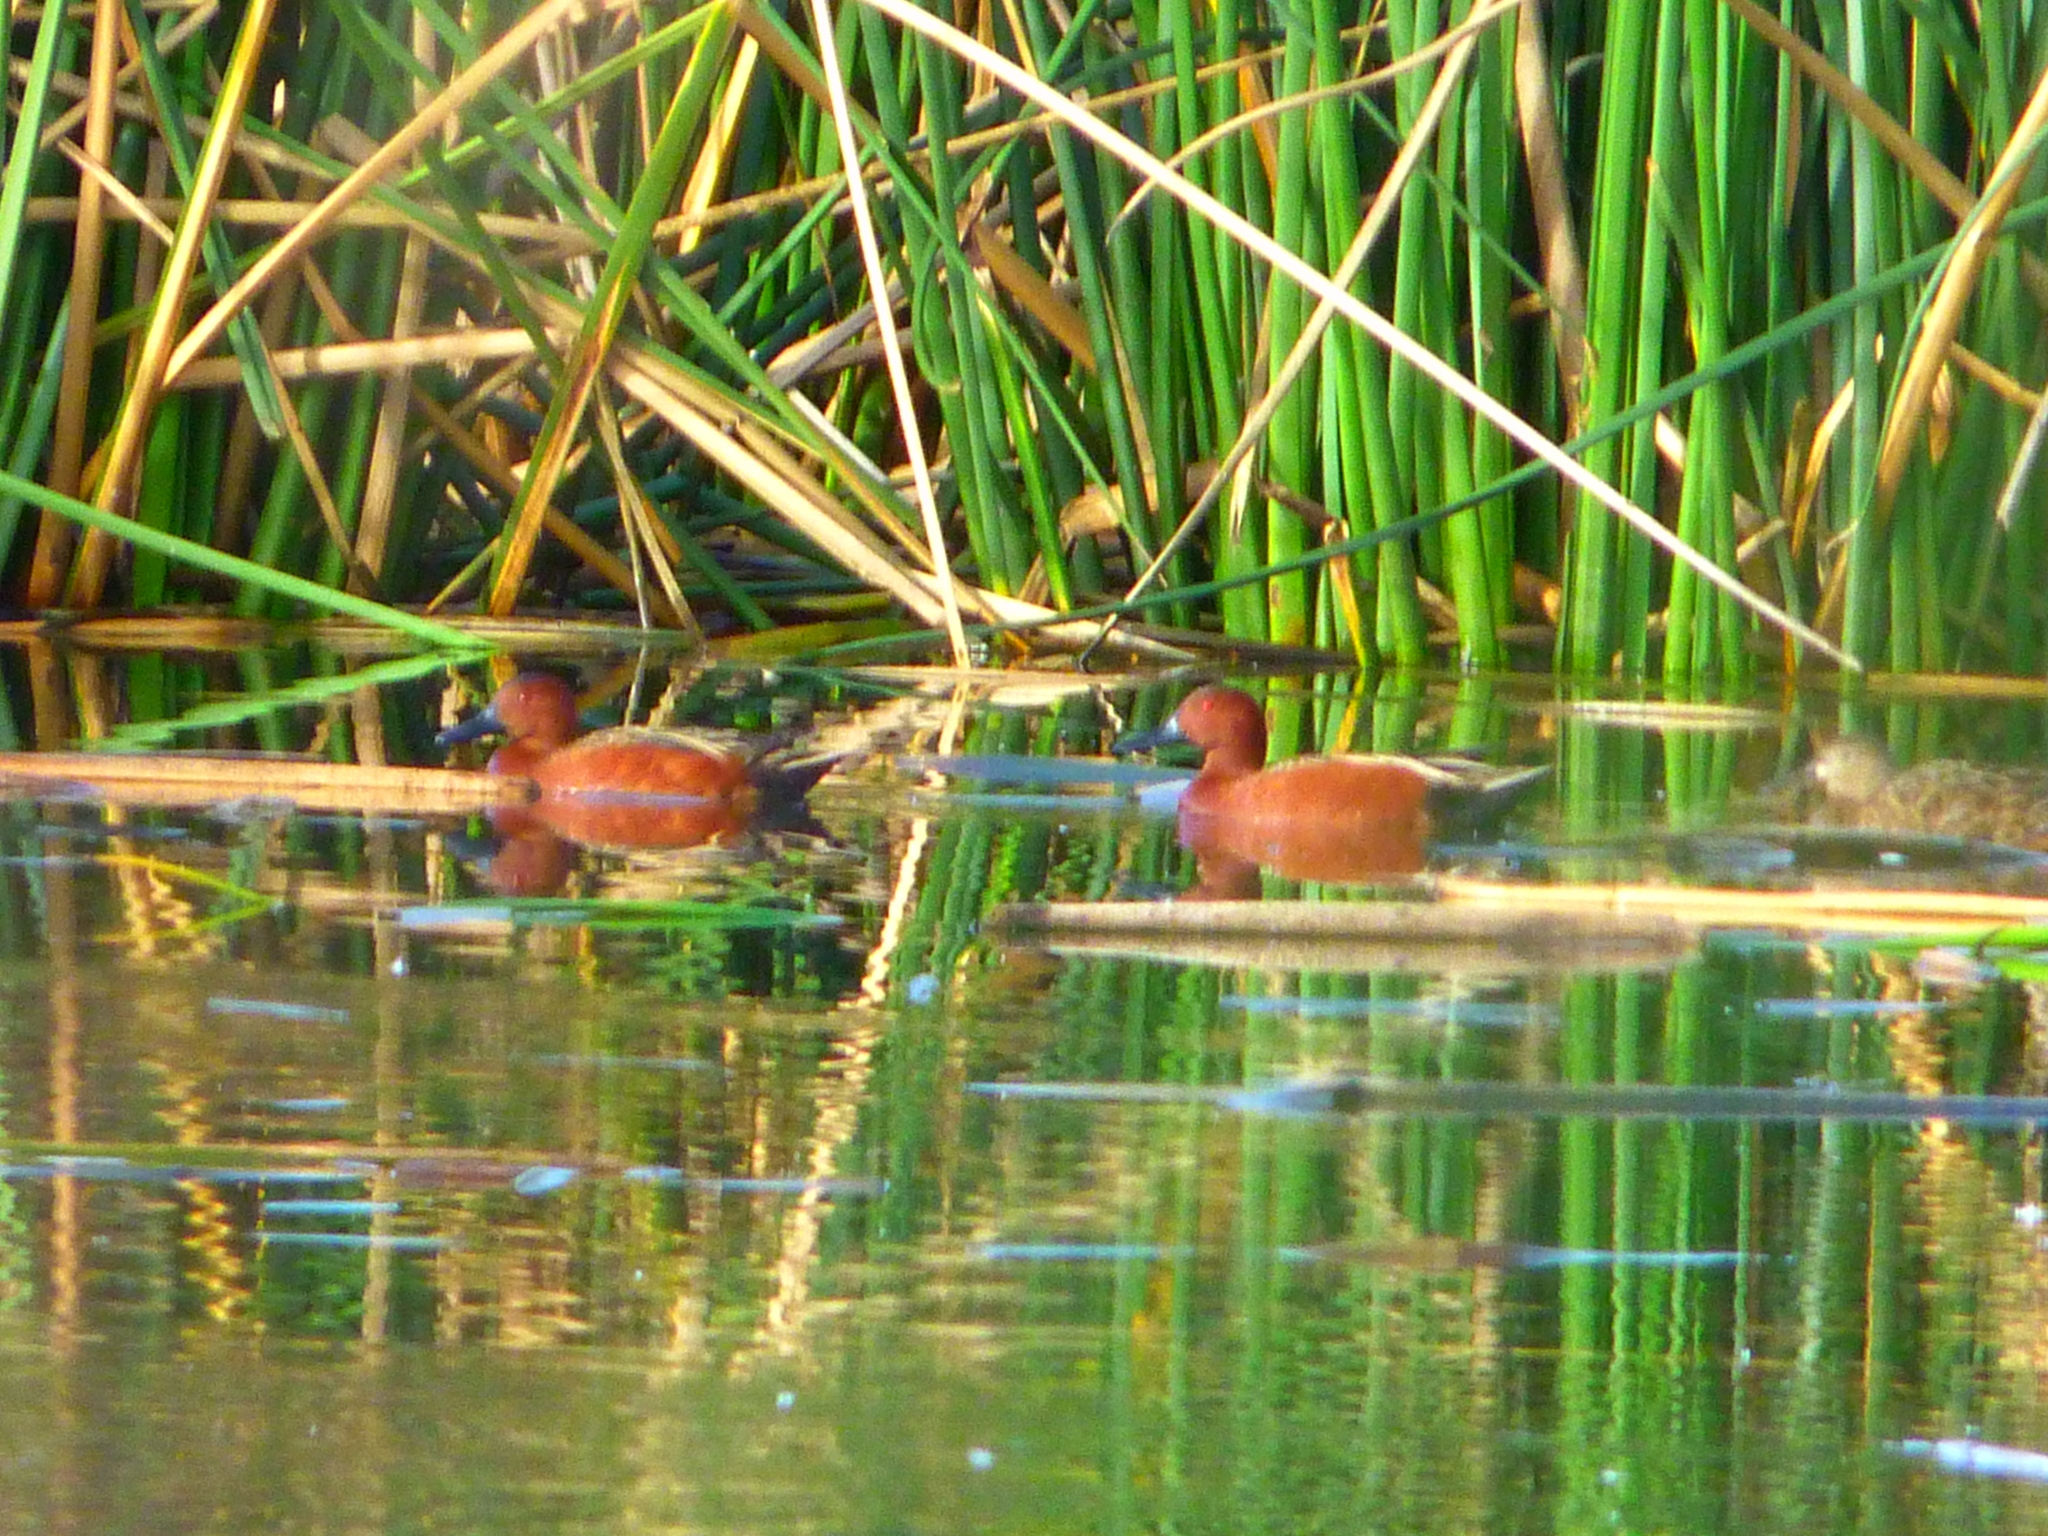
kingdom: Animalia
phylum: Chordata
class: Aves
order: Anseriformes
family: Anatidae
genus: Spatula
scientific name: Spatula cyanoptera
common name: Cinnamon teal
